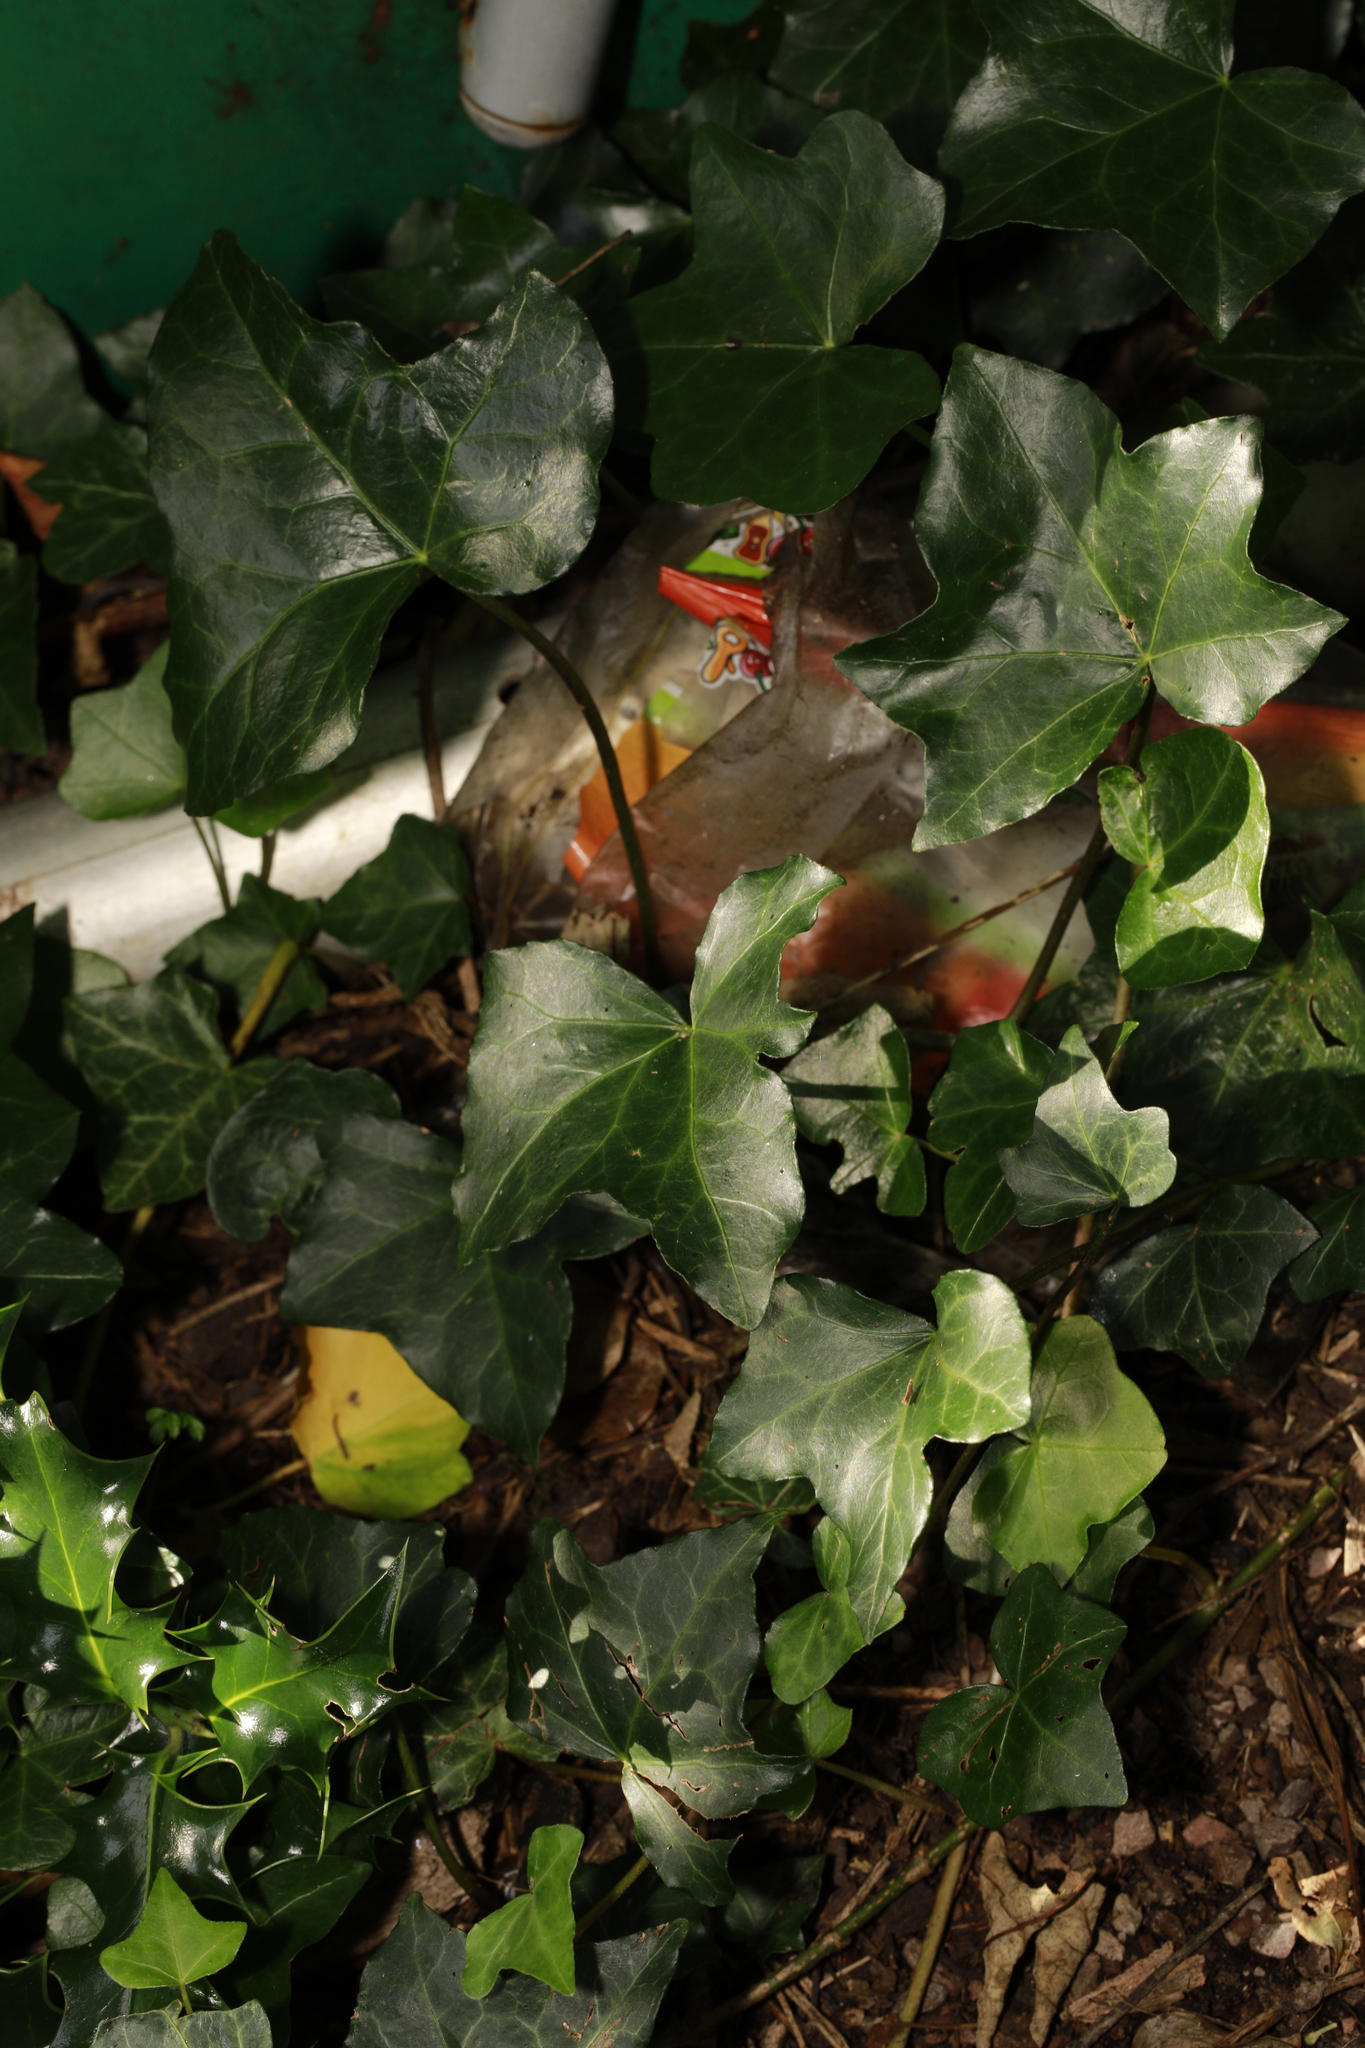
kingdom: Plantae
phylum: Tracheophyta
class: Magnoliopsida
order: Apiales
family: Araliaceae
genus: Hedera
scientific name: Hedera helix
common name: Ivy
